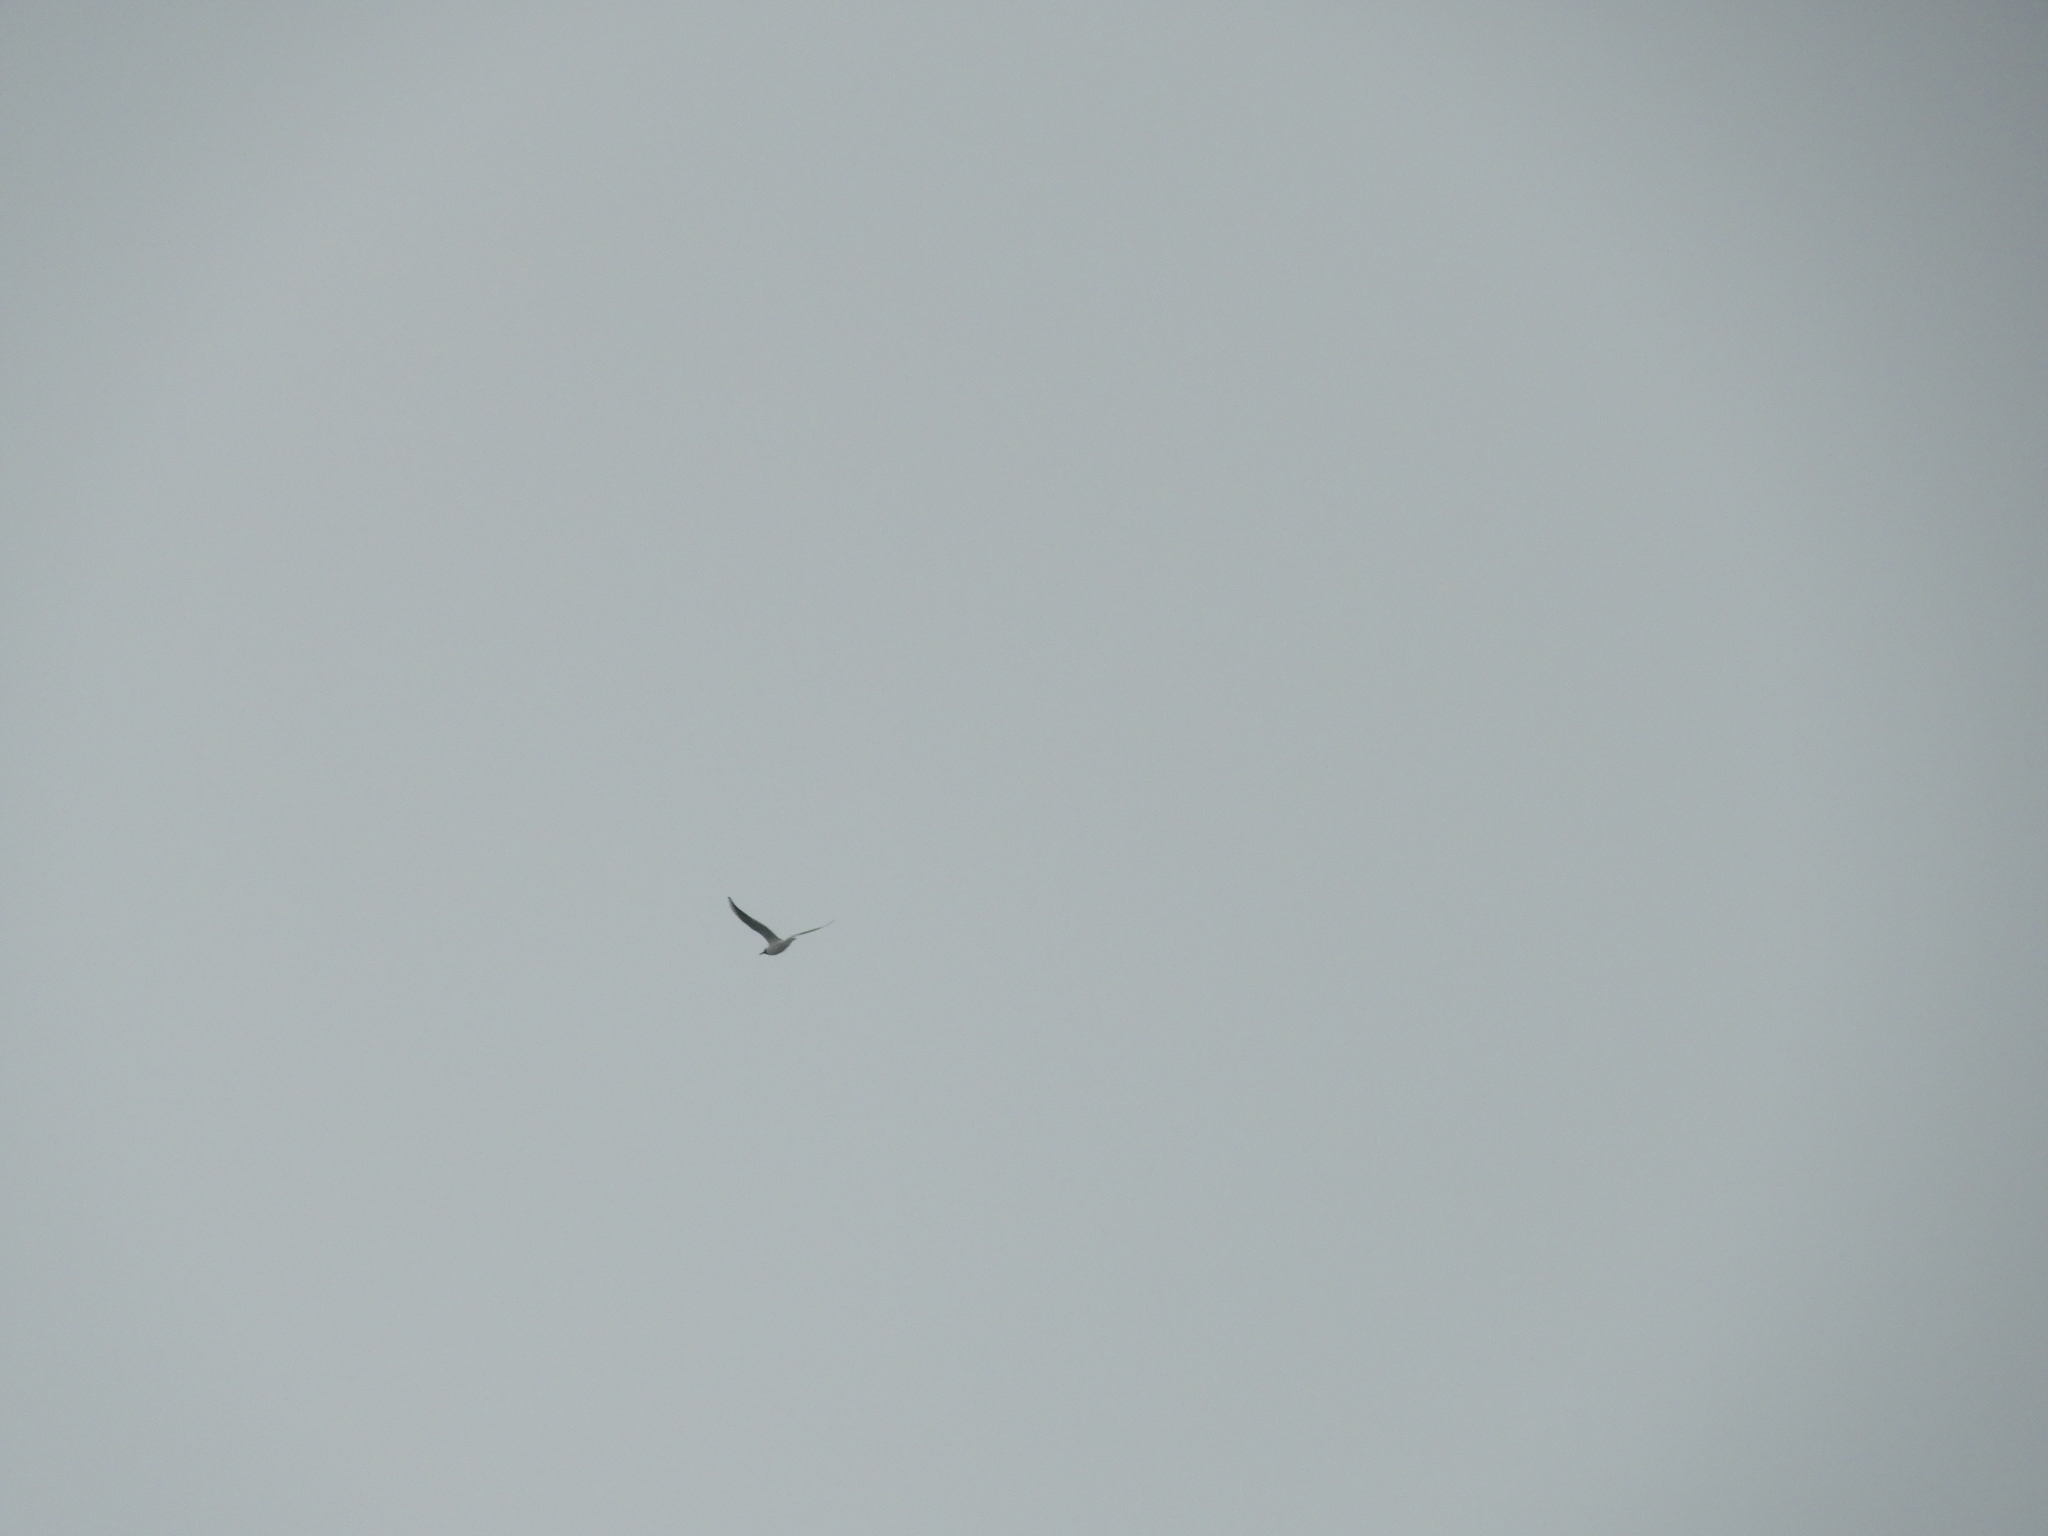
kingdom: Animalia
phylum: Chordata
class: Aves
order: Charadriiformes
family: Laridae
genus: Chroicocephalus
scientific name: Chroicocephalus ridibundus
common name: Black-headed gull
